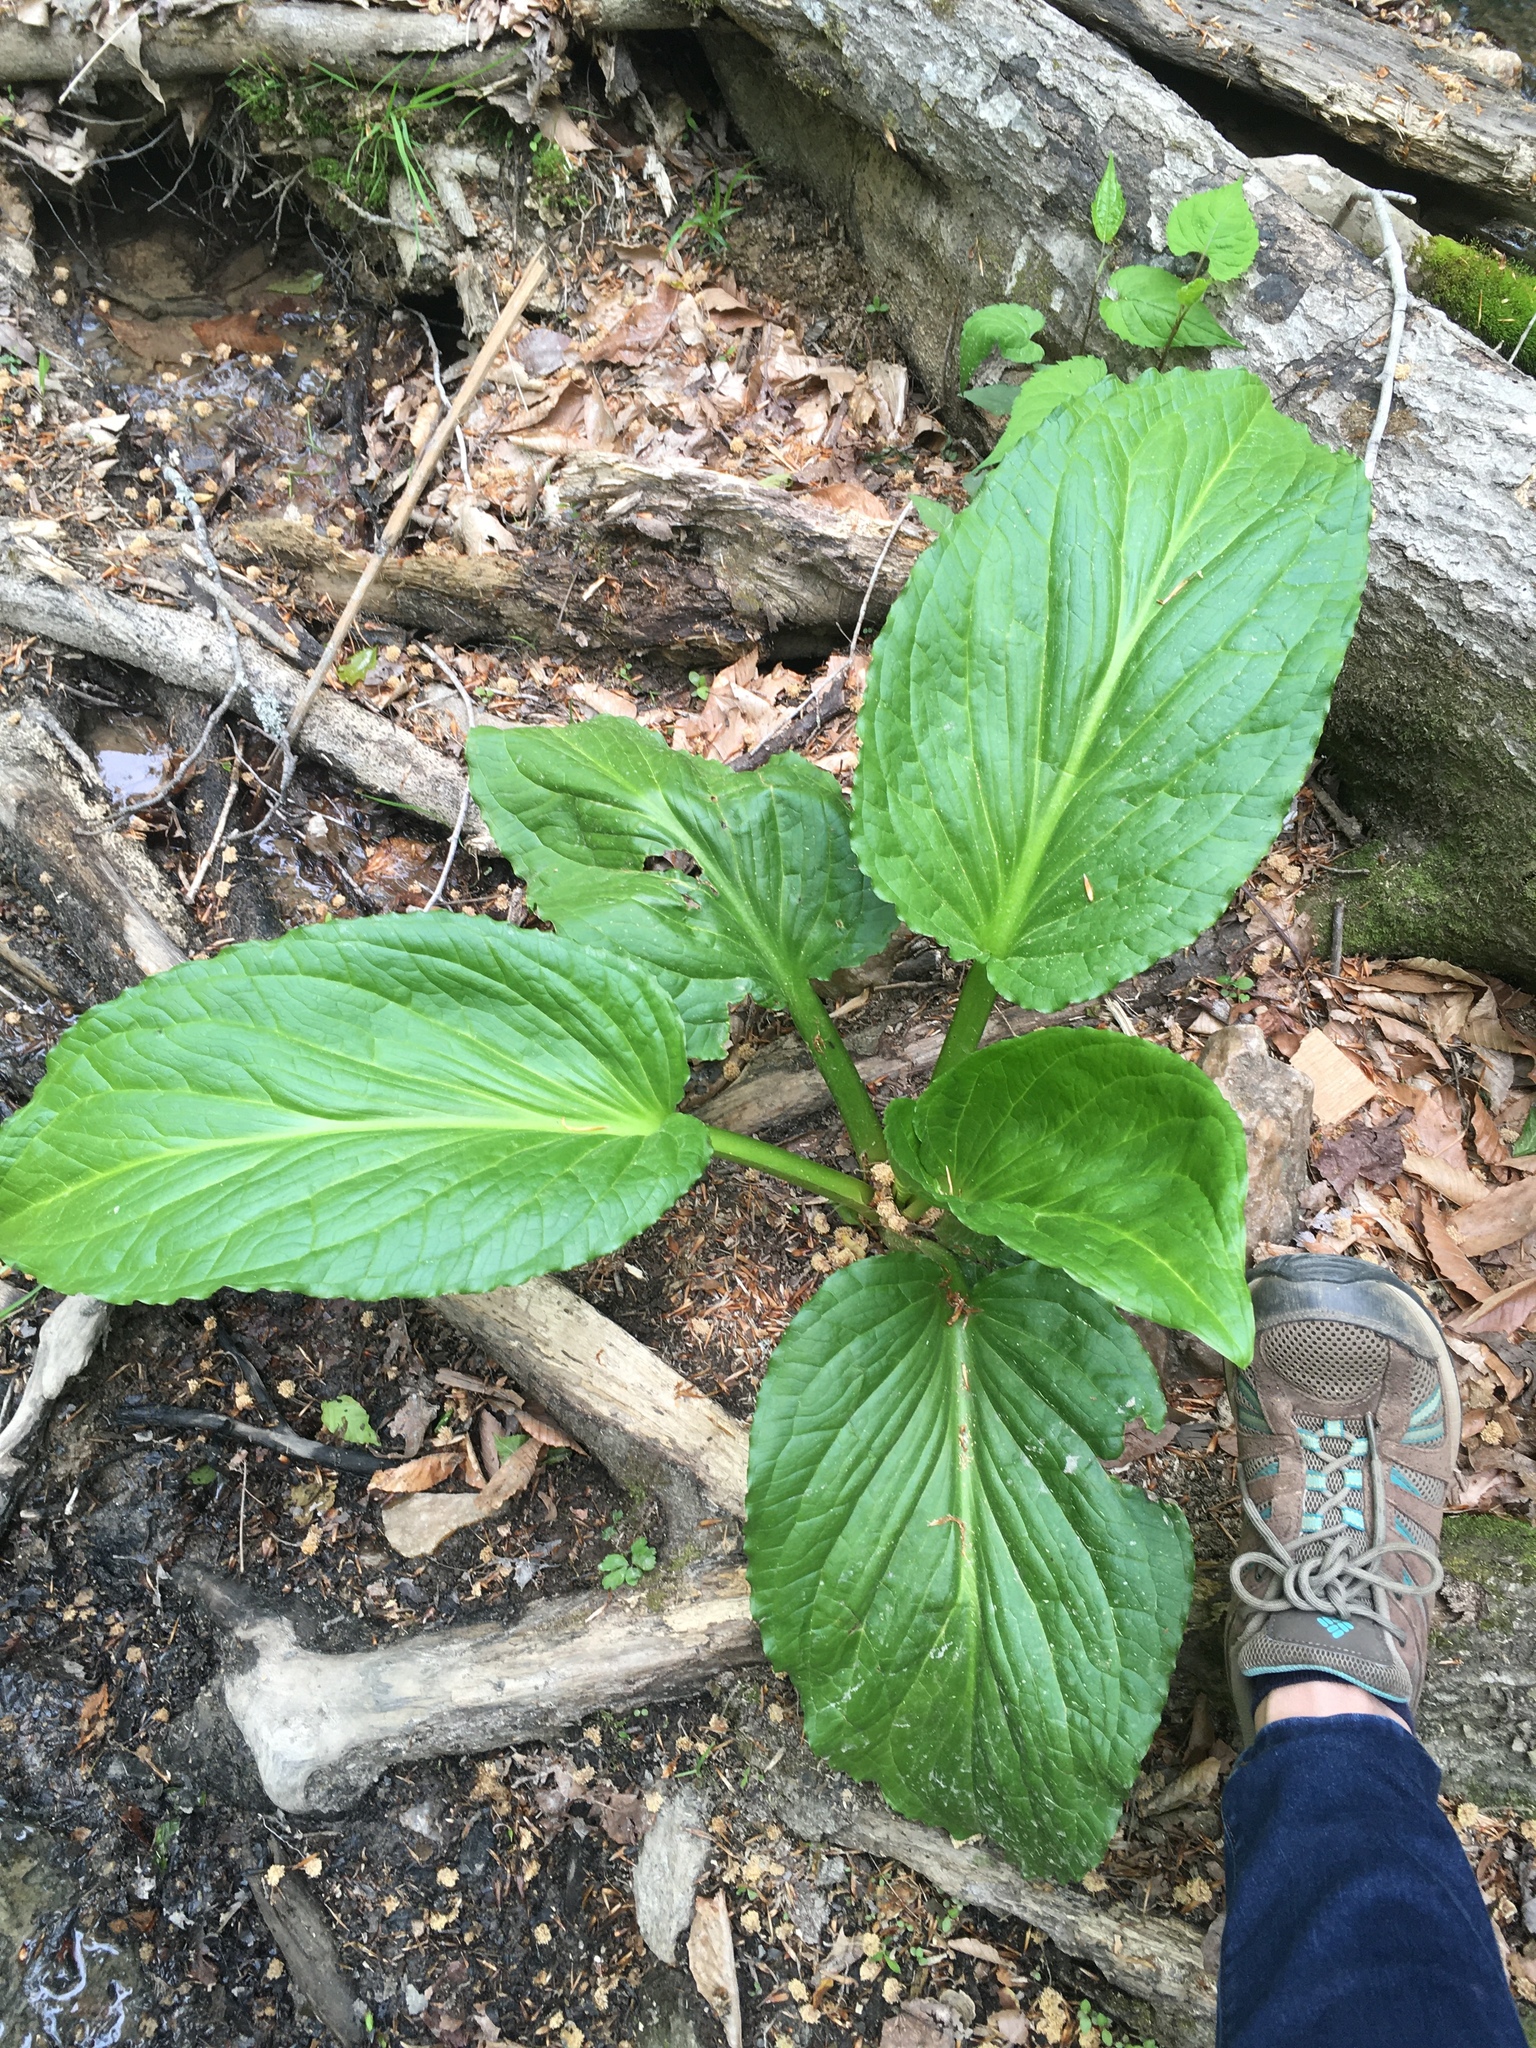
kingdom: Plantae
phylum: Tracheophyta
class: Liliopsida
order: Alismatales
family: Araceae
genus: Symplocarpus
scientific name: Symplocarpus foetidus
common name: Eastern skunk cabbage
